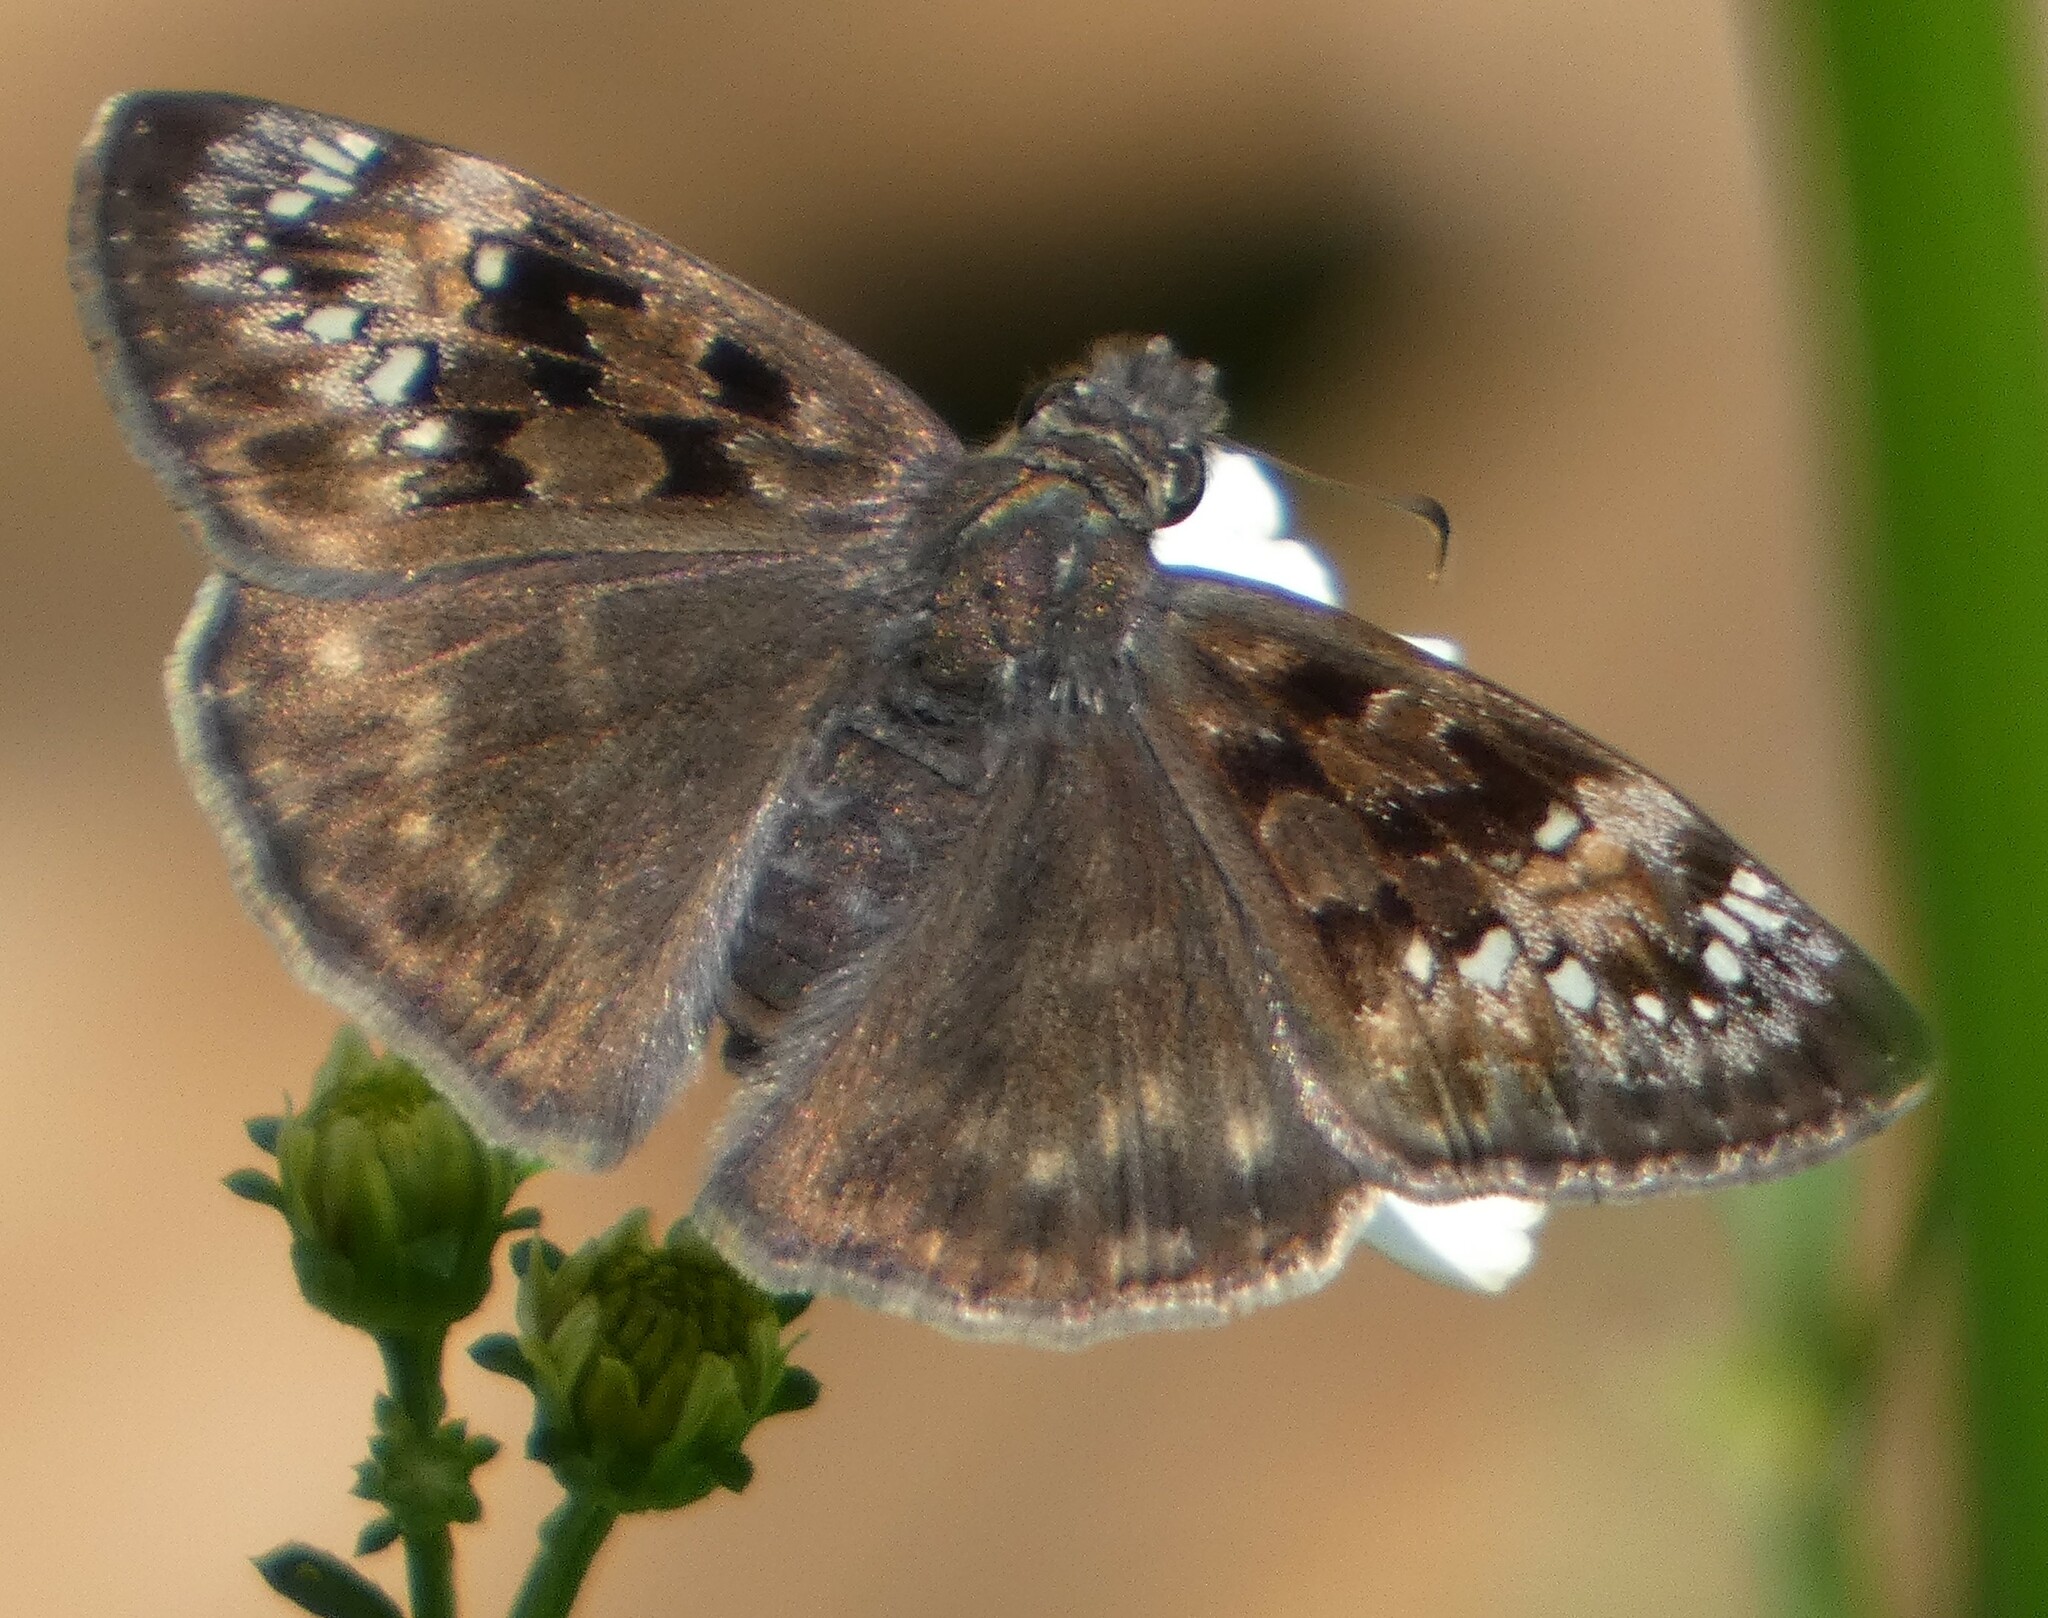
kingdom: Animalia
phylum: Arthropoda
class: Insecta
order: Lepidoptera
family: Hesperiidae
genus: Erynnis
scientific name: Erynnis horatius
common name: Horace's duskywing
